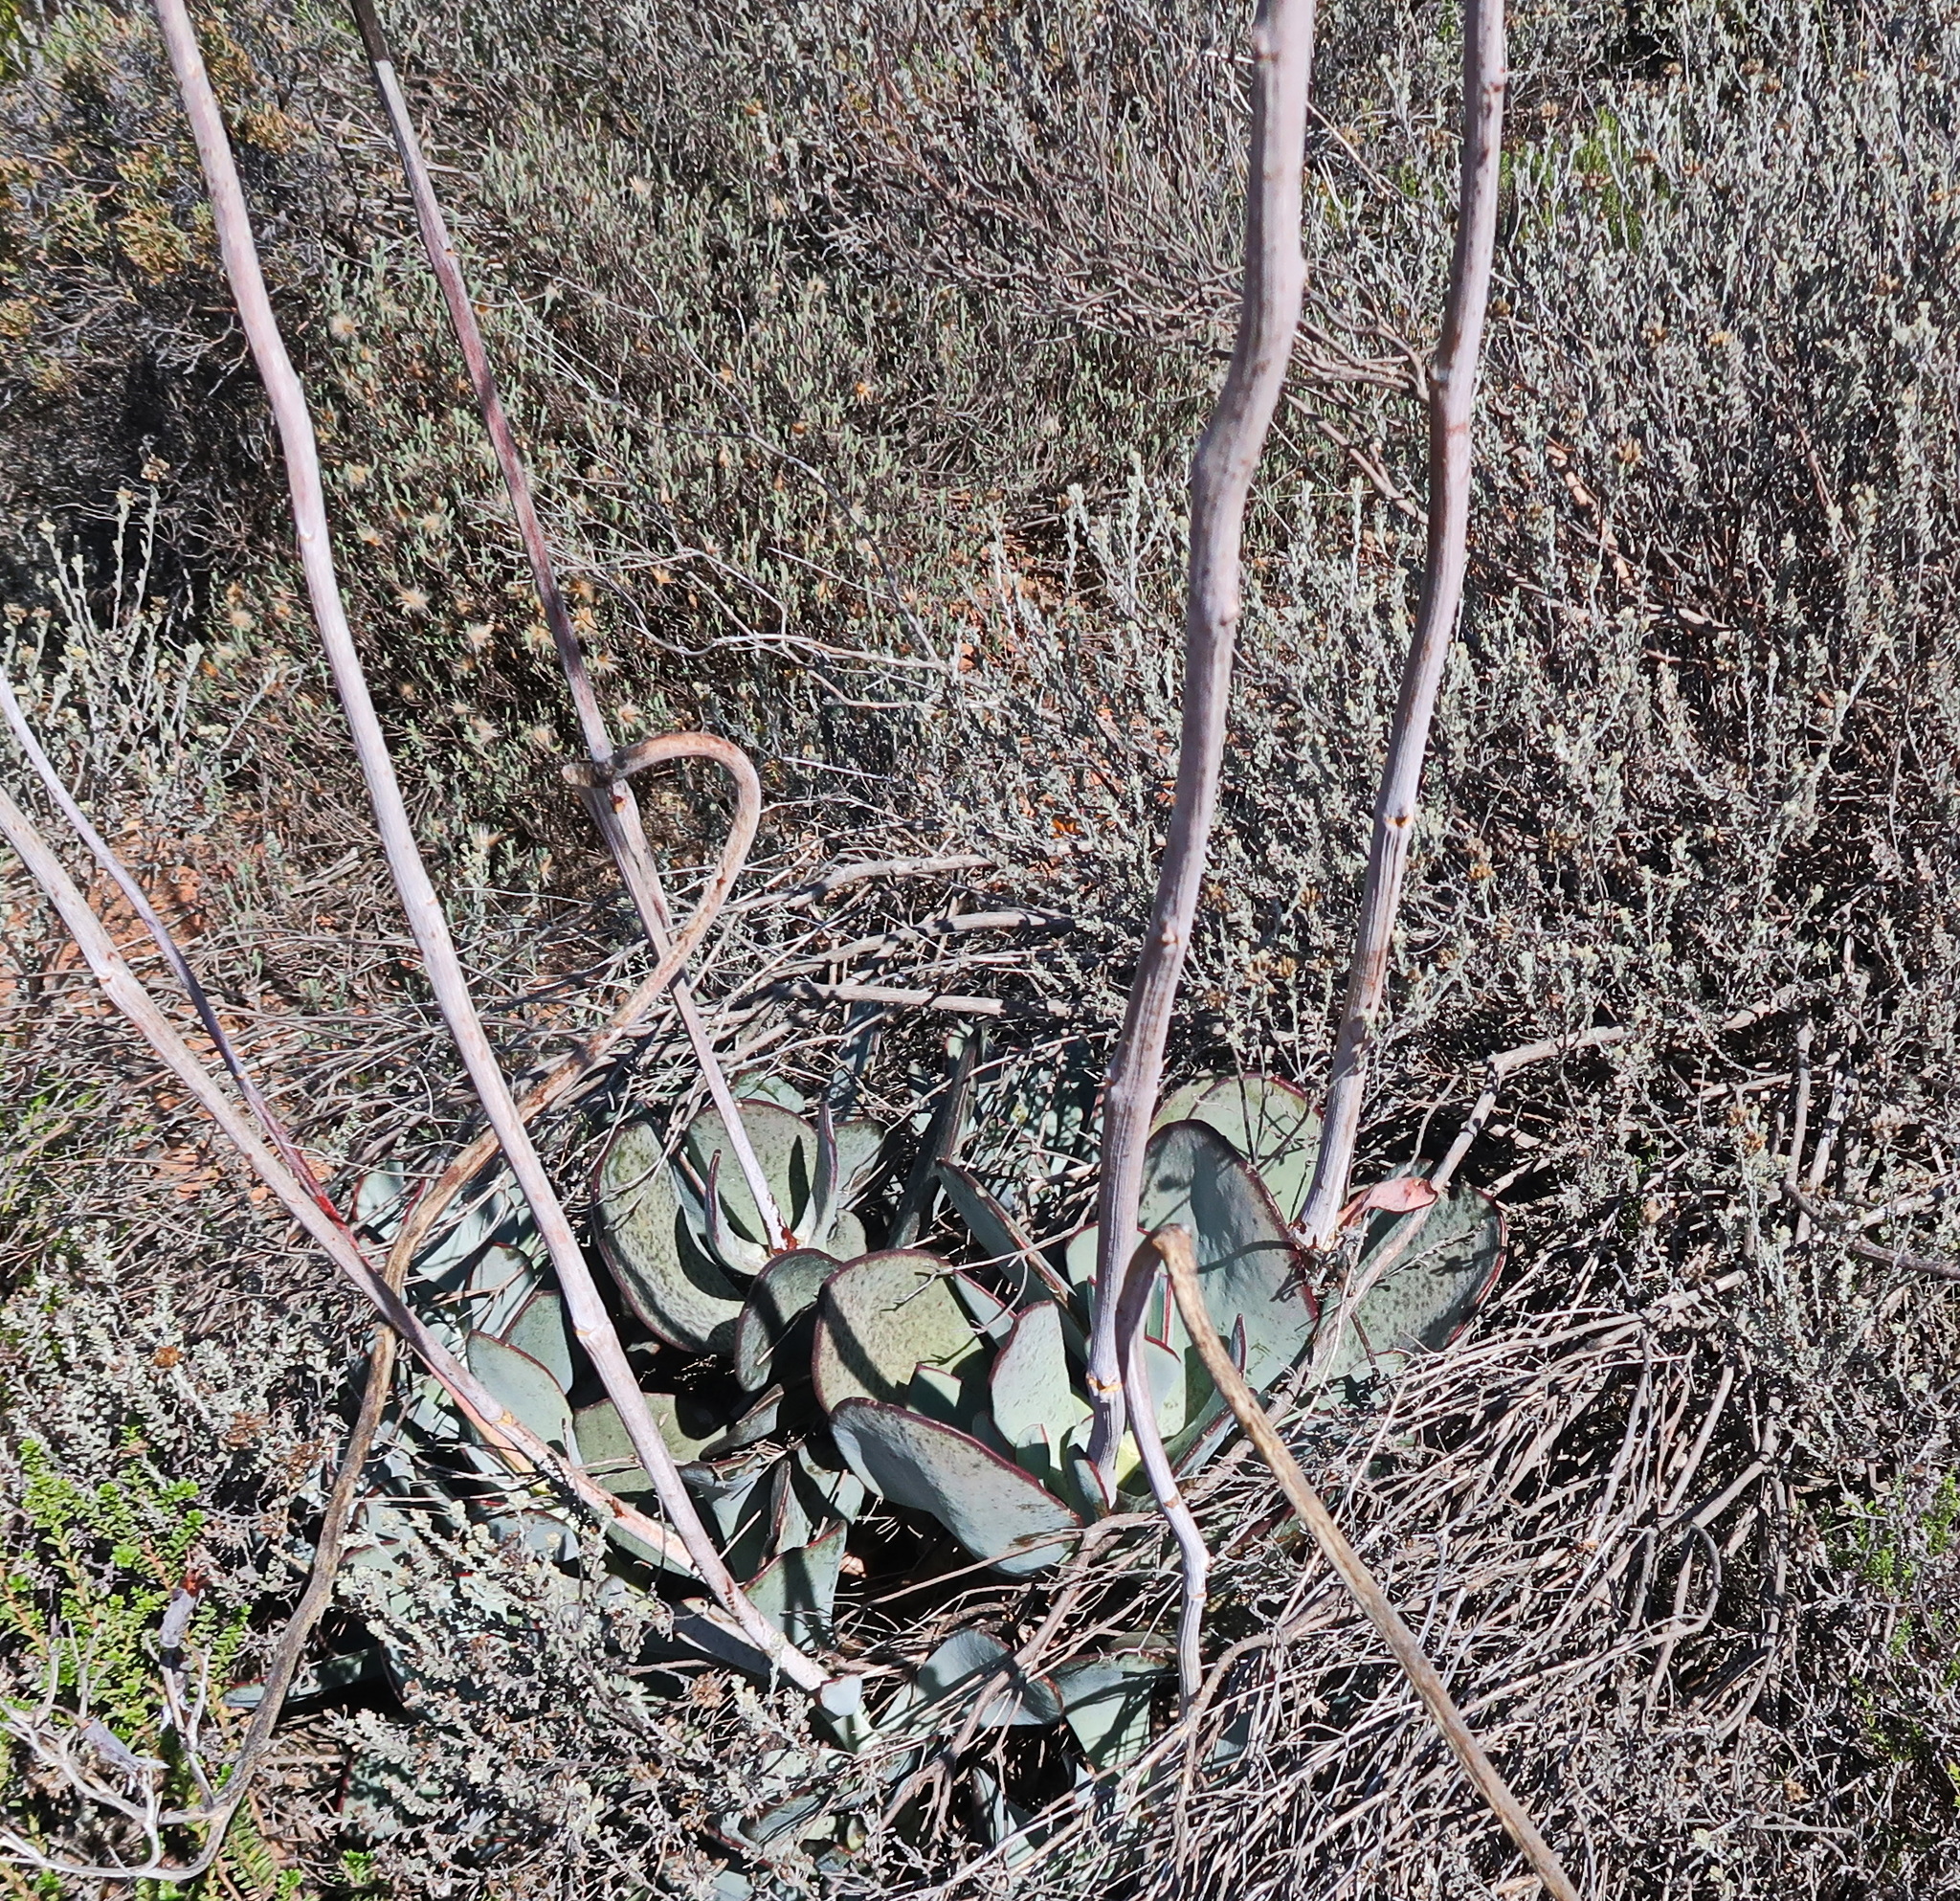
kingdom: Plantae
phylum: Tracheophyta
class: Magnoliopsida
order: Saxifragales
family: Crassulaceae
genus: Cotyledon
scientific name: Cotyledon orbiculata
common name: Pig's ear
